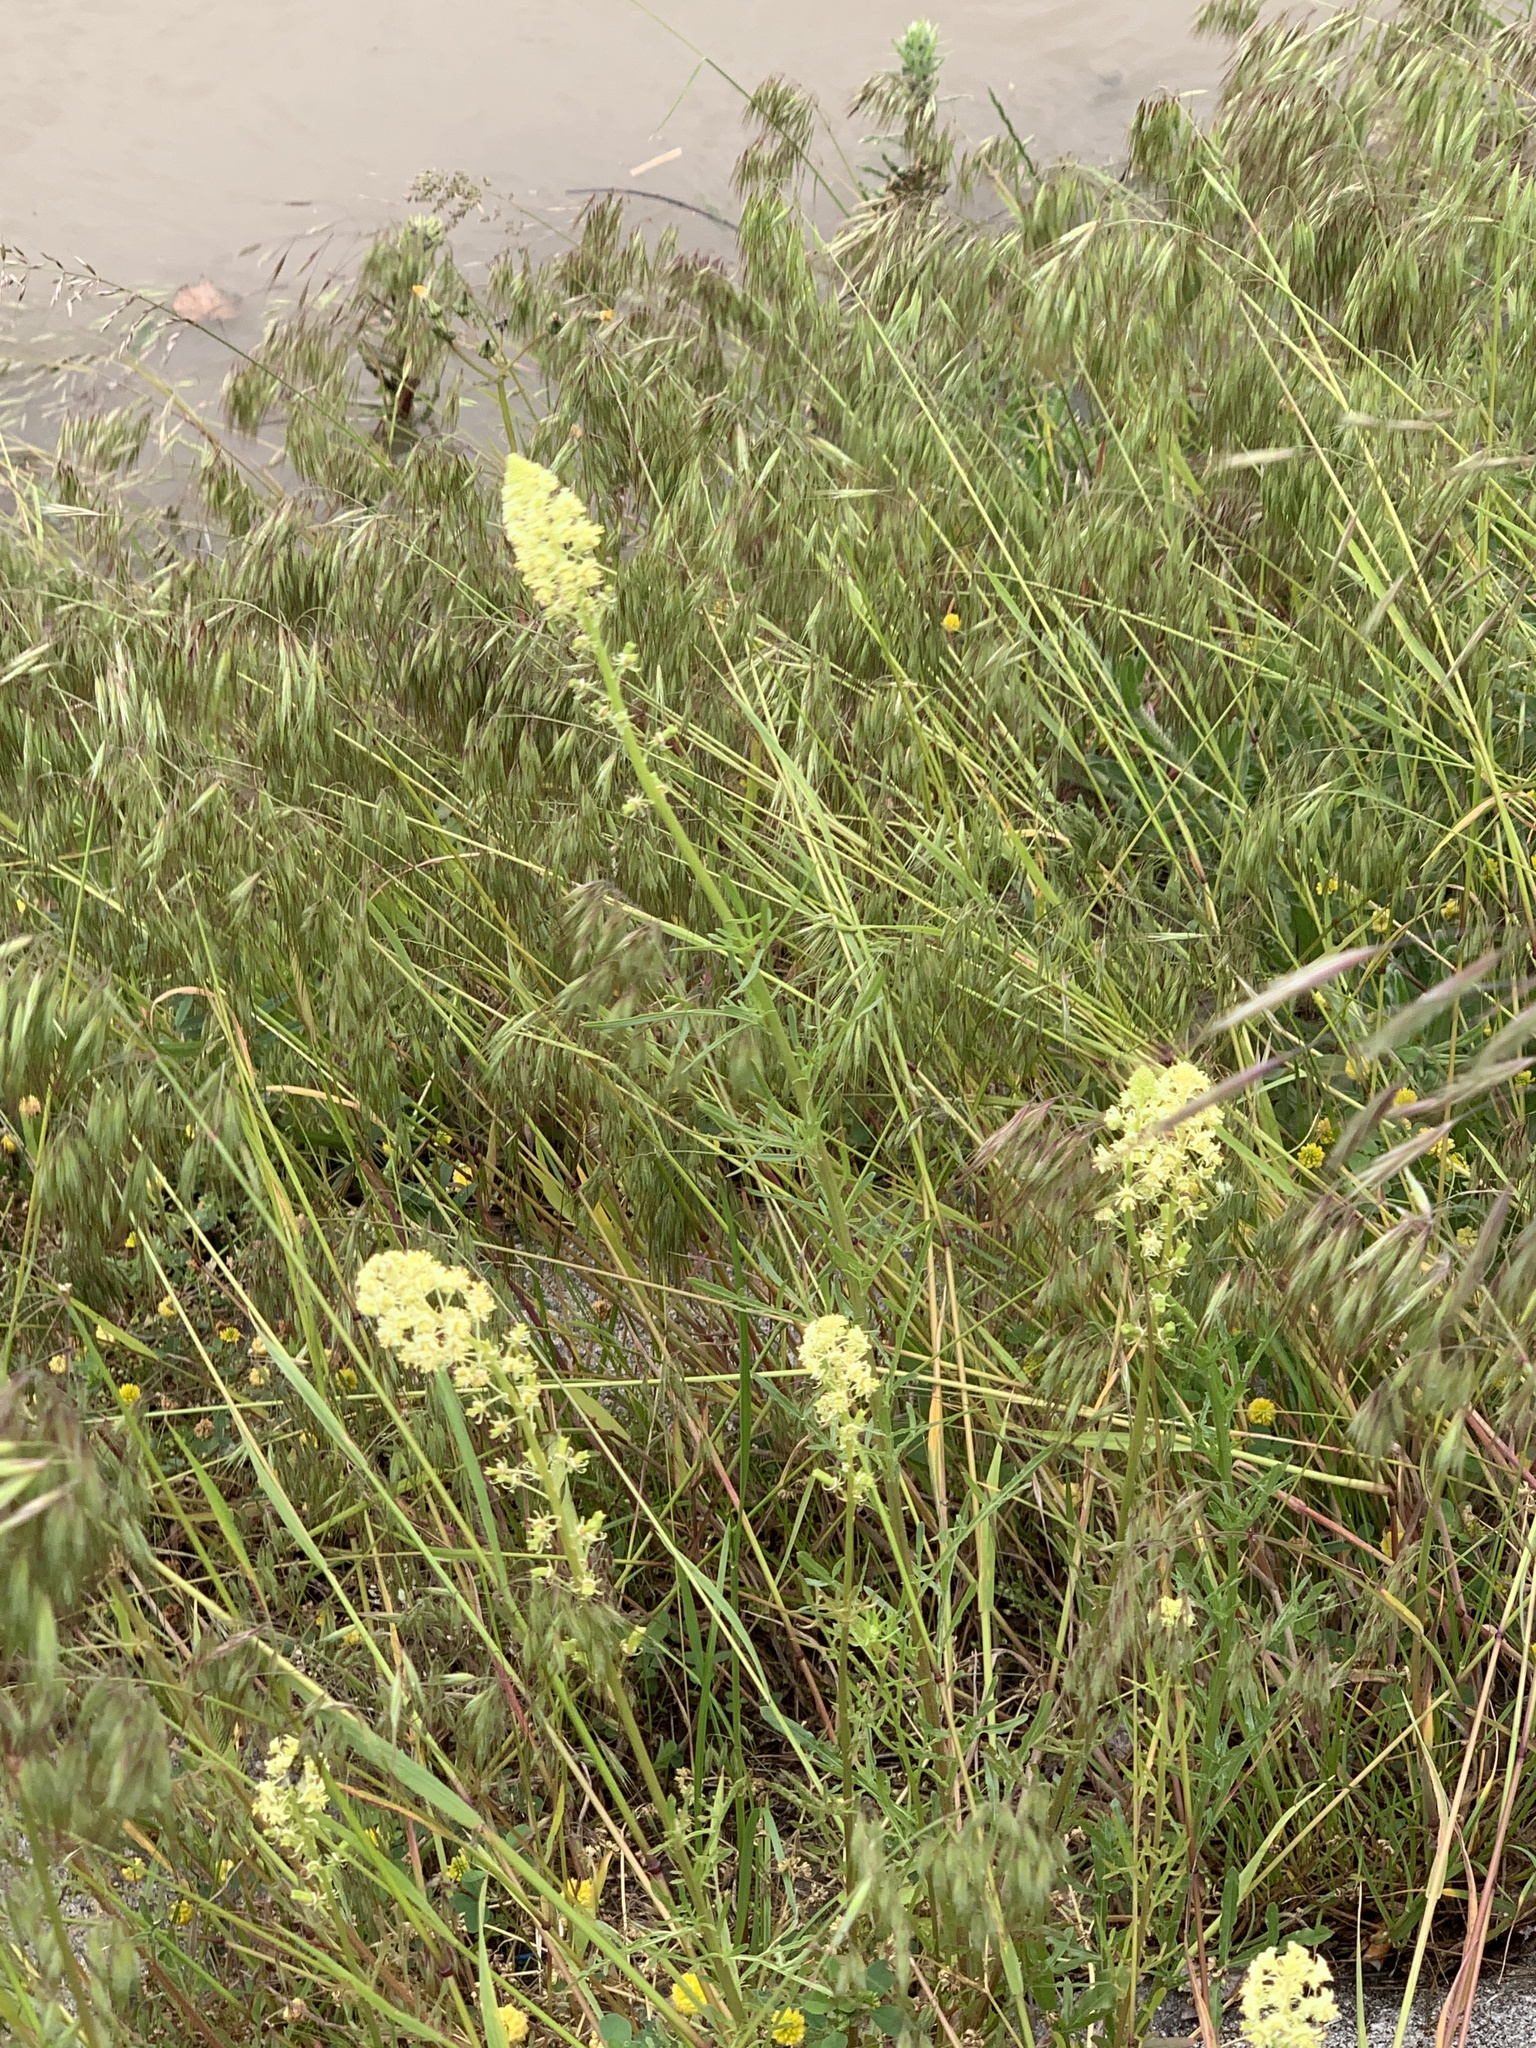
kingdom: Plantae
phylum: Tracheophyta
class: Magnoliopsida
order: Brassicales
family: Resedaceae
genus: Reseda
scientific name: Reseda lutea
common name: Wild mignonette
